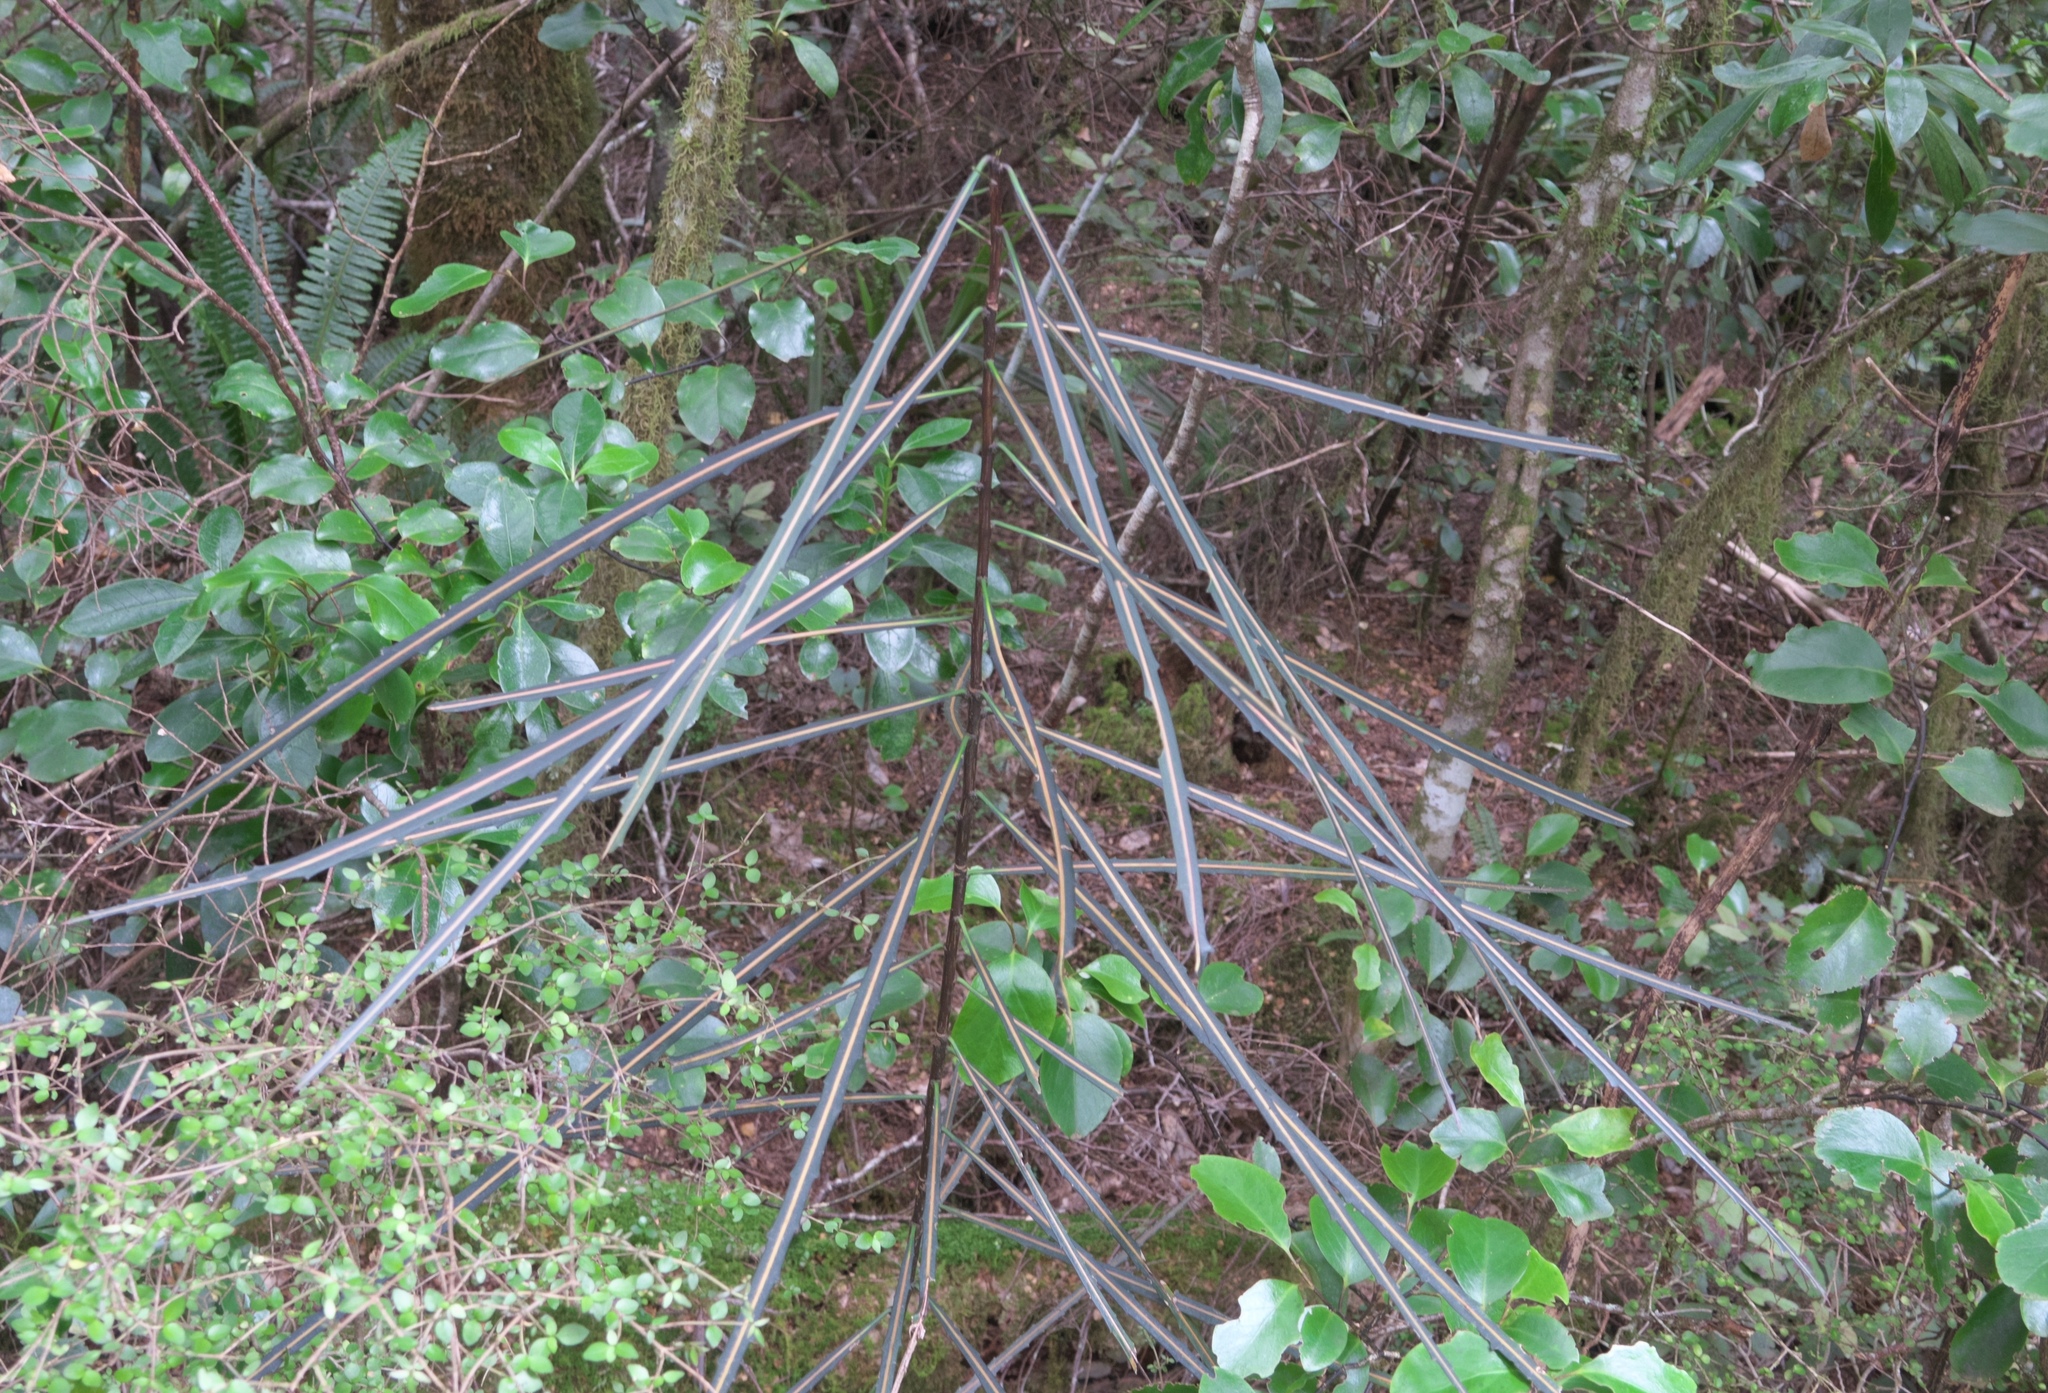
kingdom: Plantae
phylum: Tracheophyta
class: Magnoliopsida
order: Apiales
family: Araliaceae
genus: Pseudopanax
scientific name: Pseudopanax crassifolius
